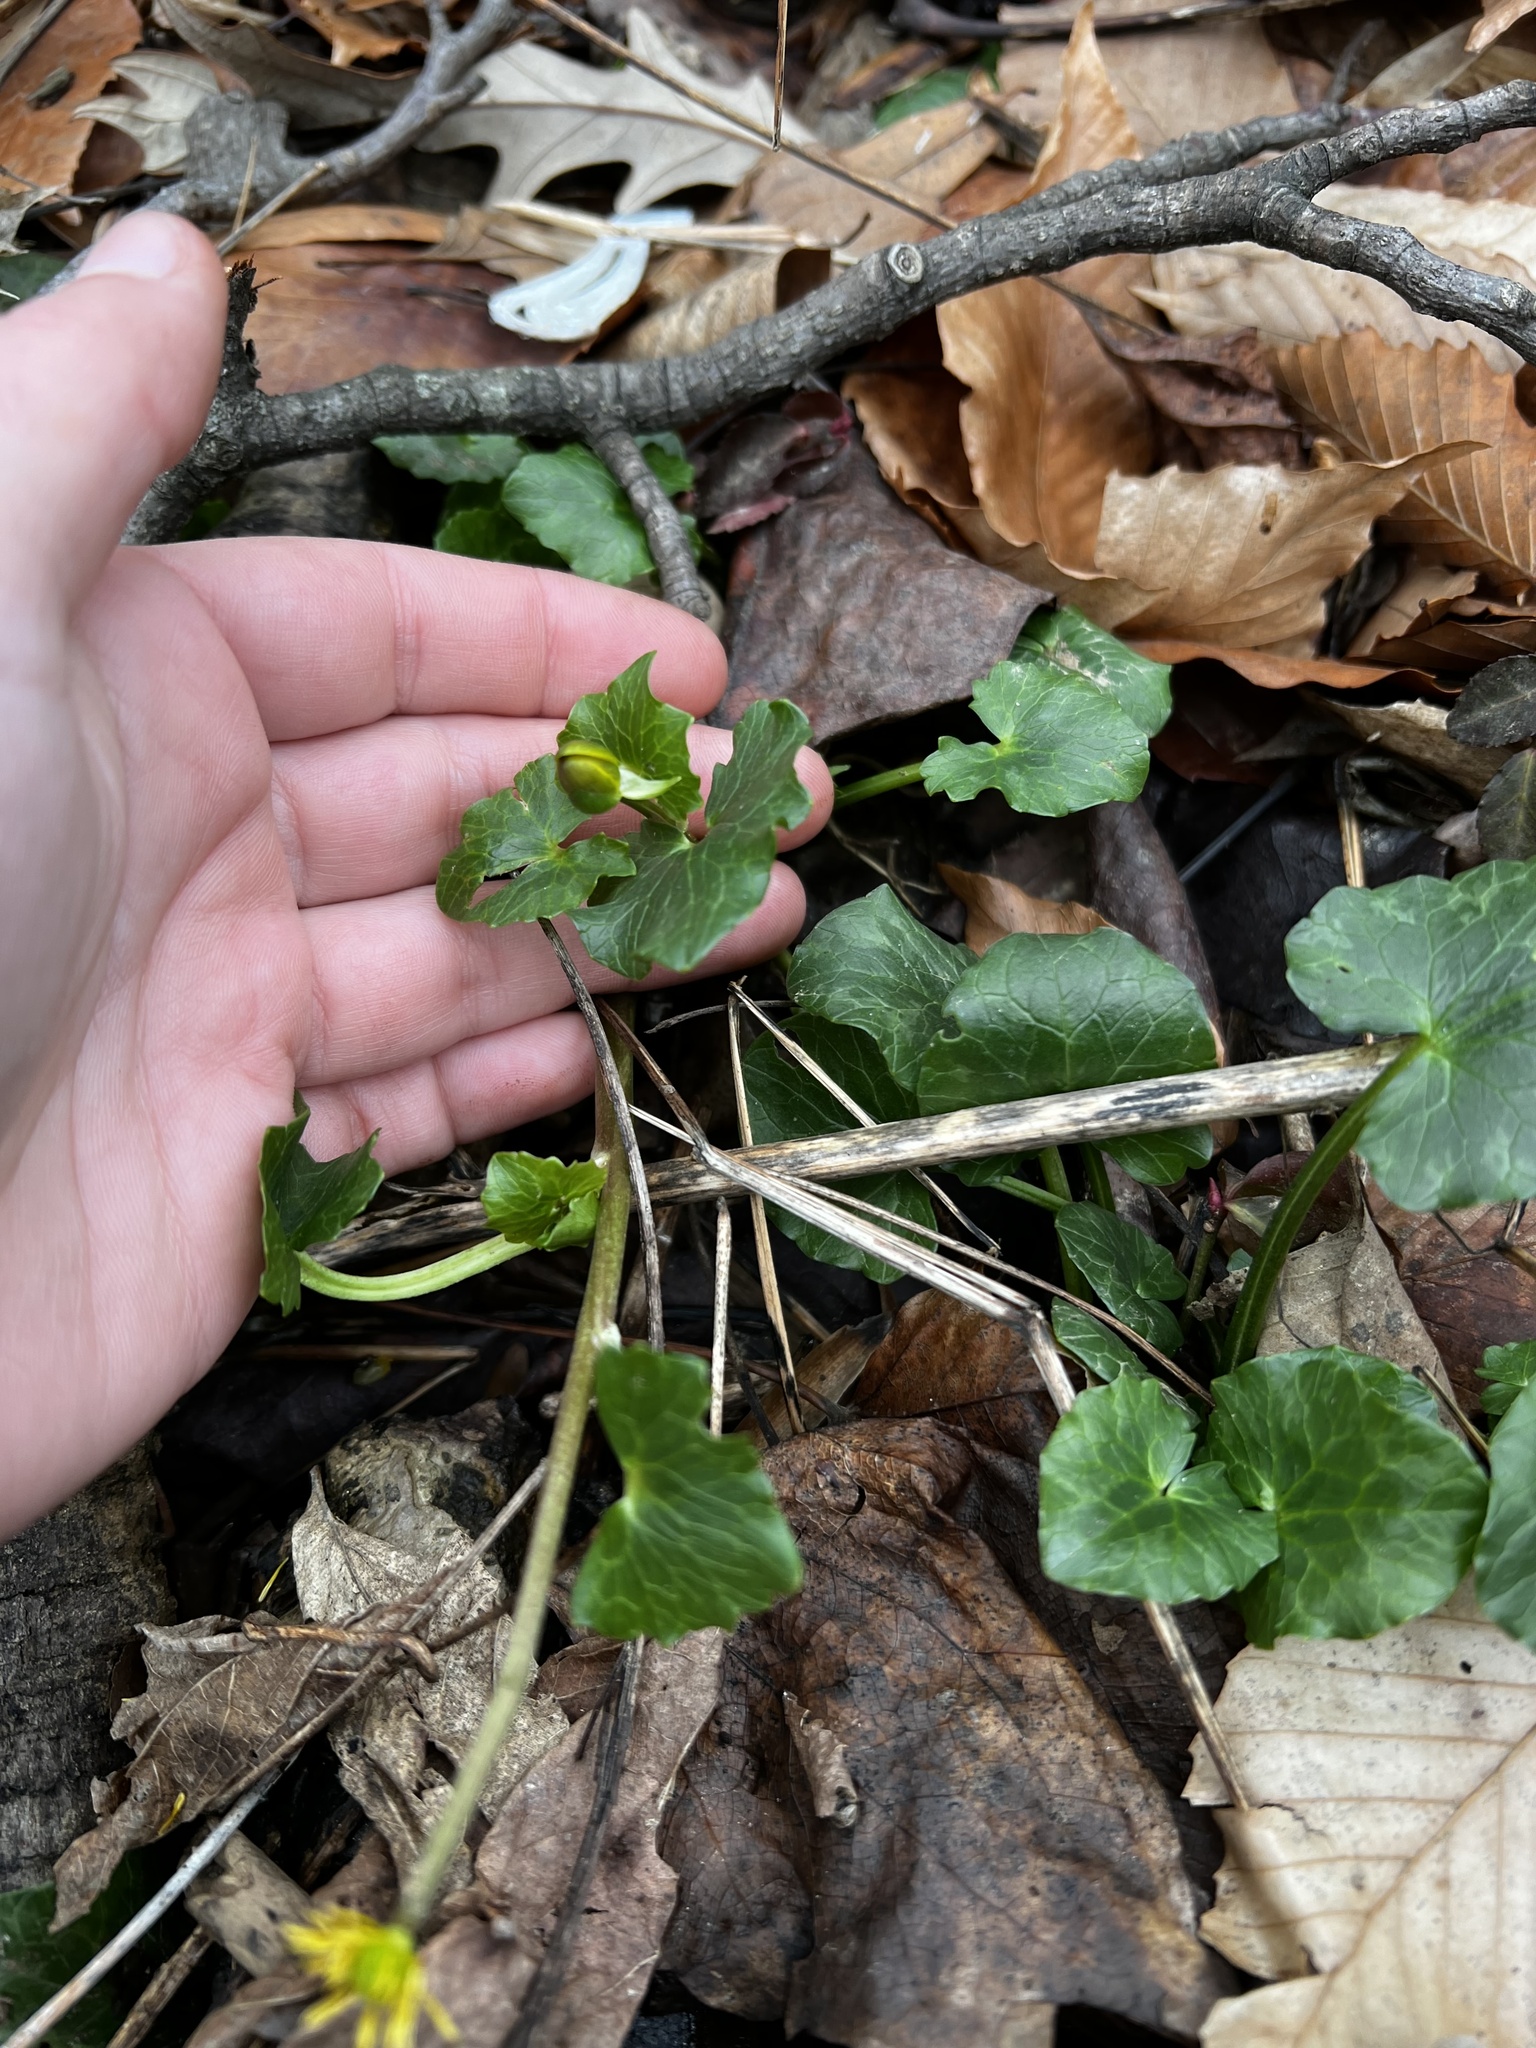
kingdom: Plantae
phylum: Tracheophyta
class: Magnoliopsida
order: Ranunculales
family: Ranunculaceae
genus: Ficaria
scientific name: Ficaria verna
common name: Lesser celandine
